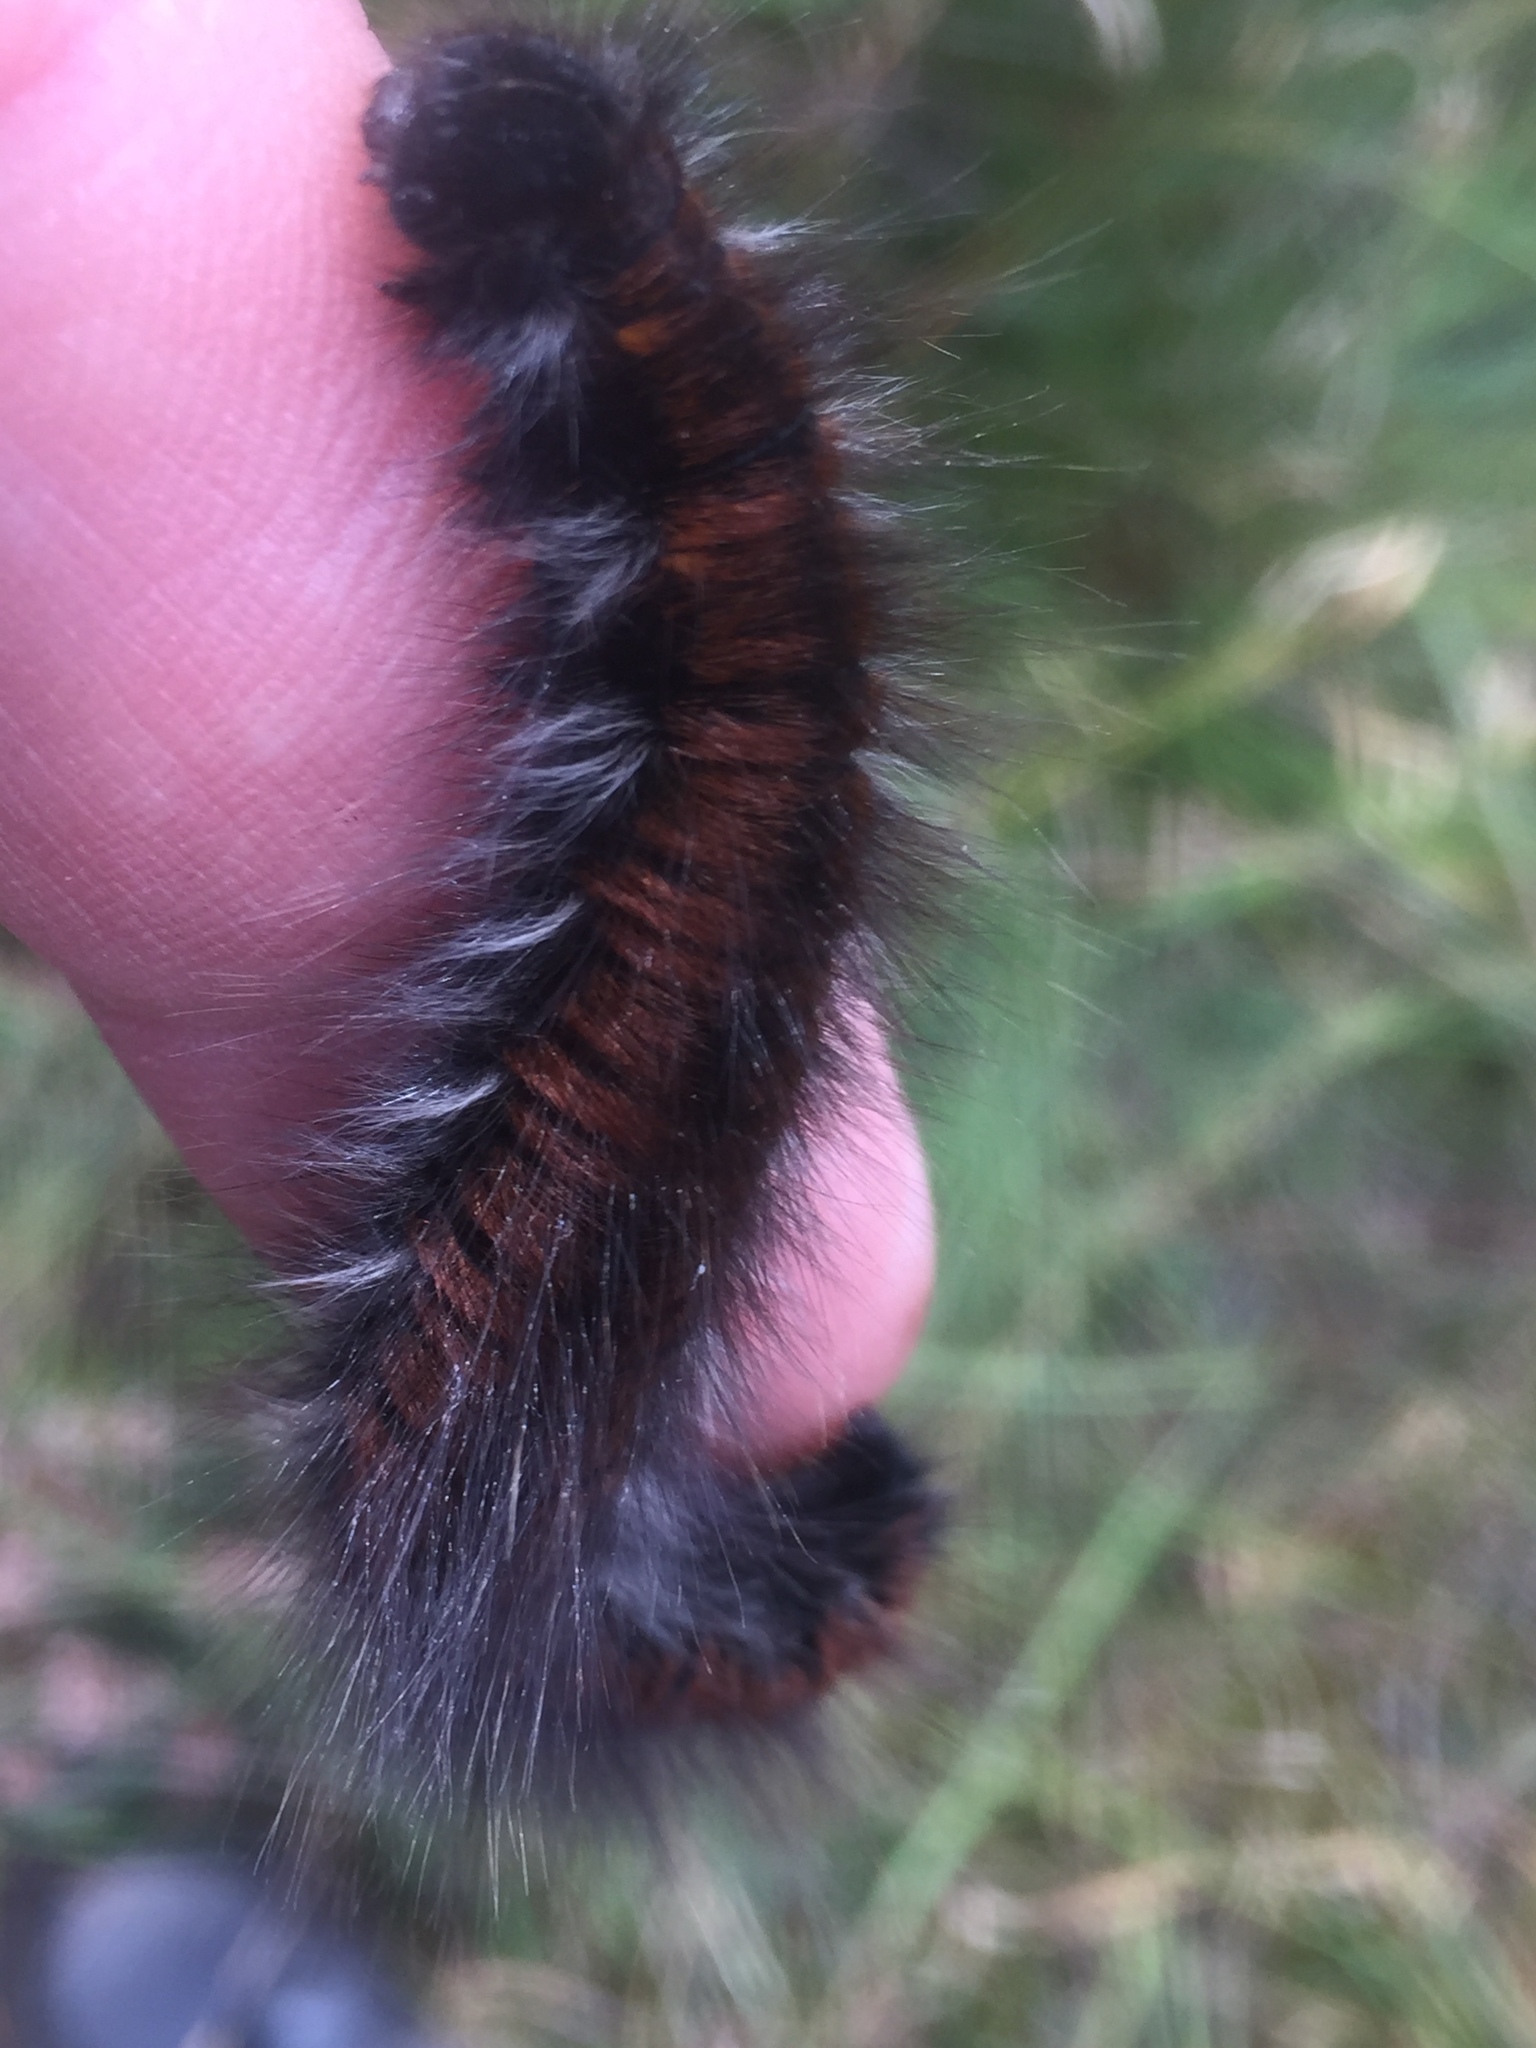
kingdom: Animalia
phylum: Arthropoda
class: Insecta
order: Lepidoptera
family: Lasiocampidae
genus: Macrothylacia
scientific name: Macrothylacia rubi
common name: Fox moth
